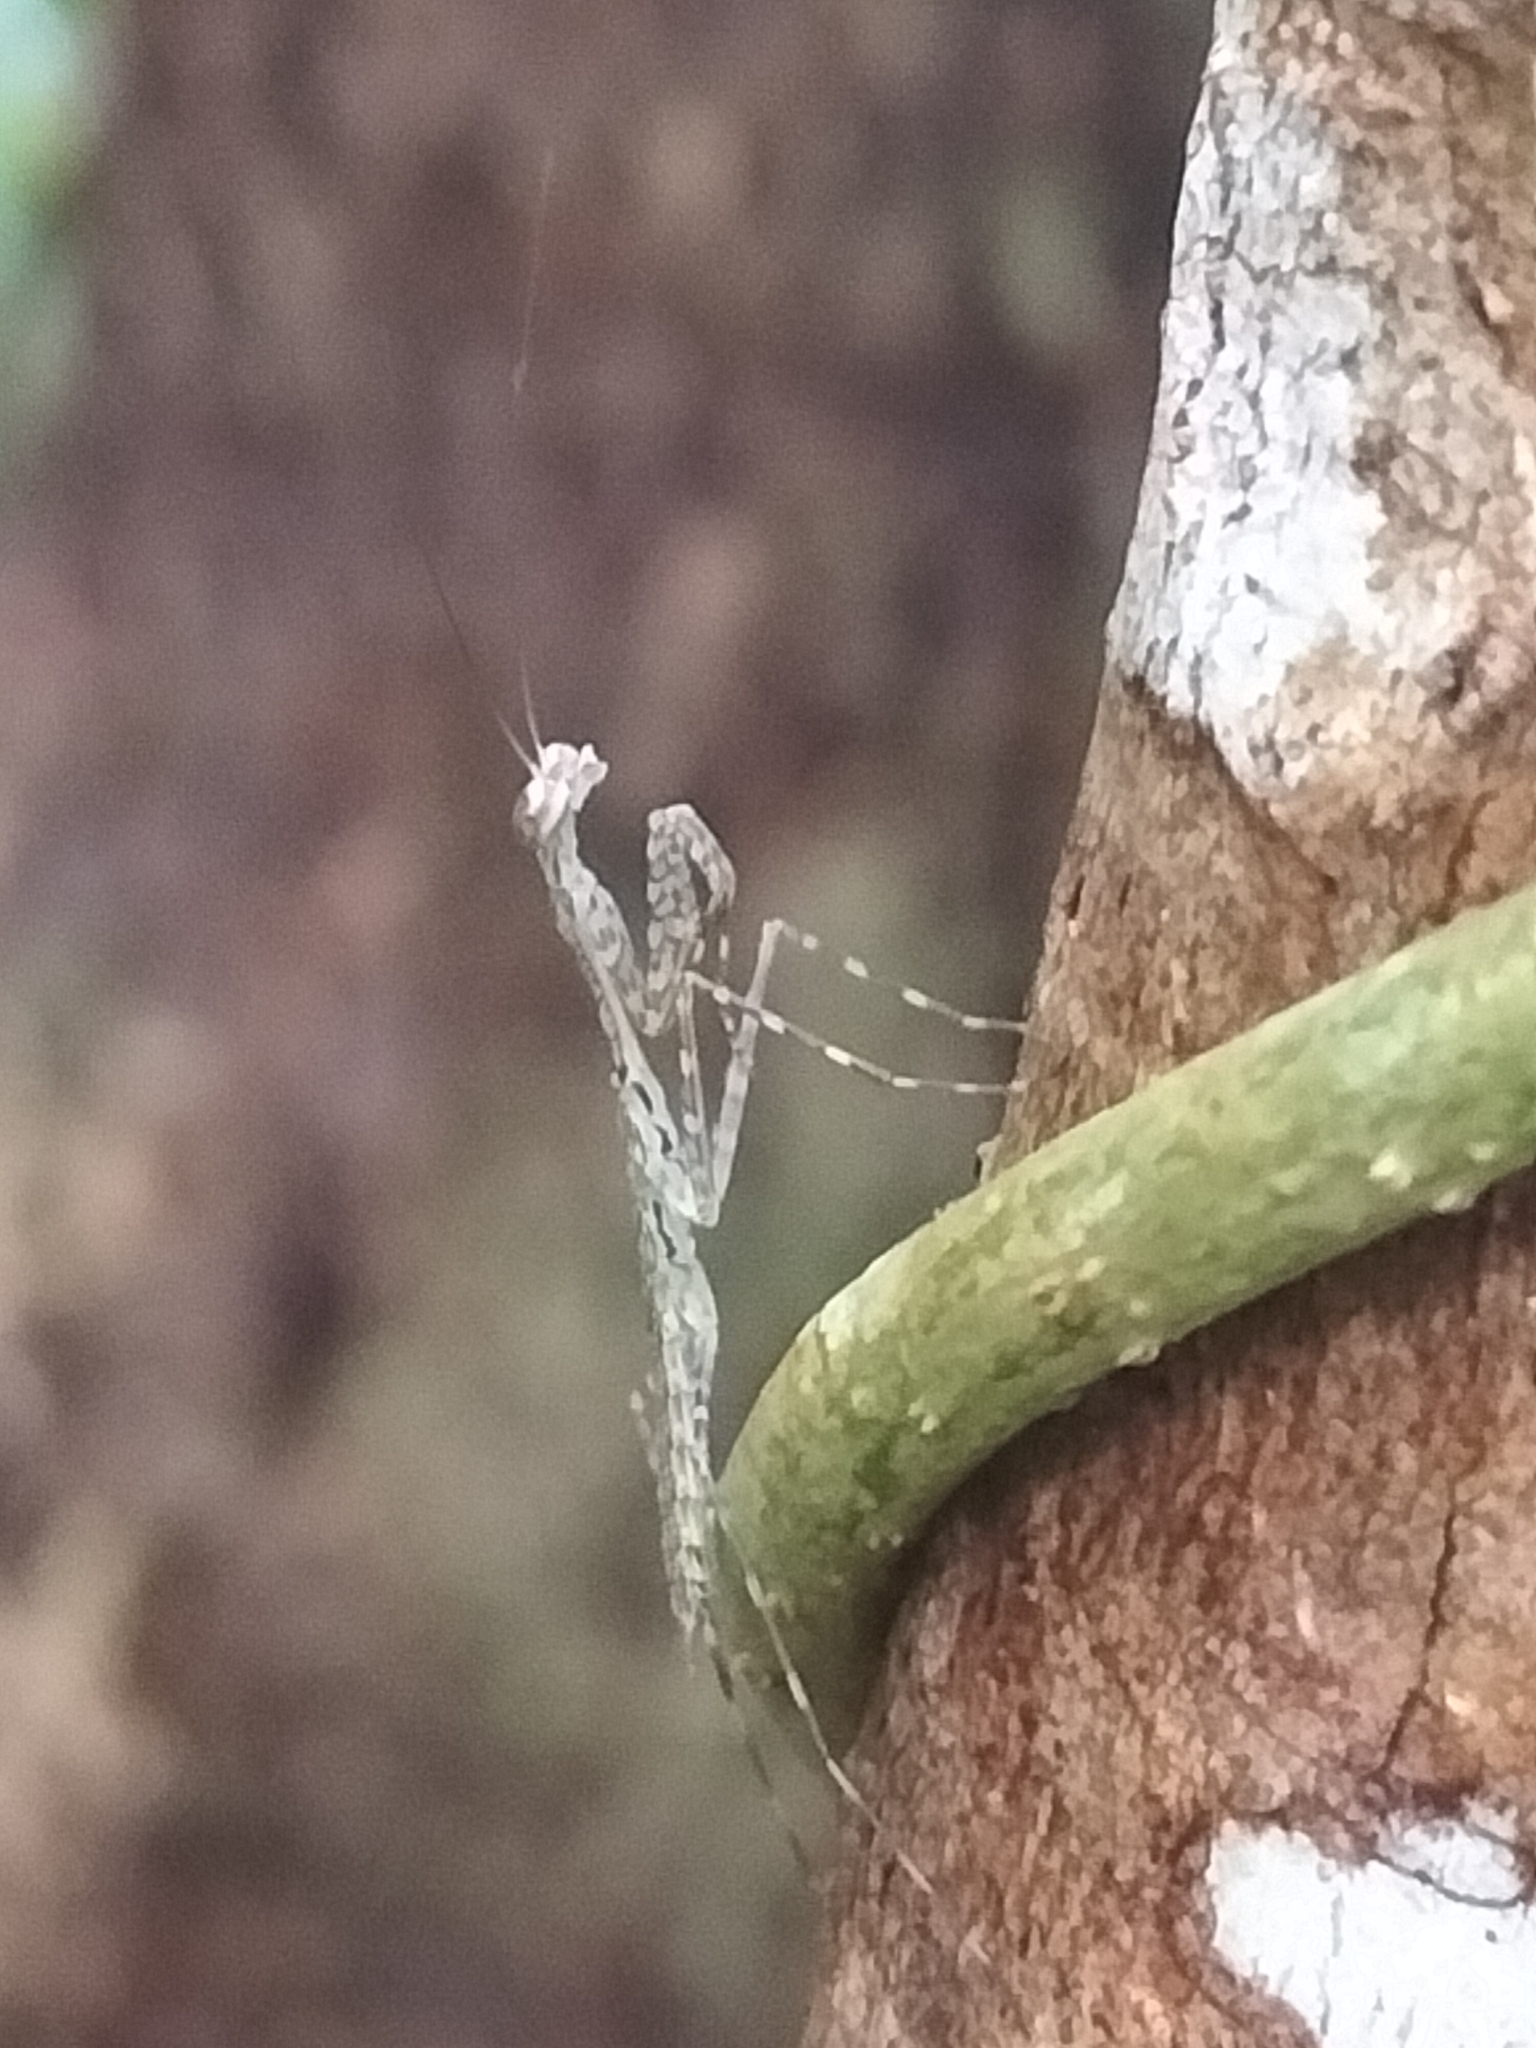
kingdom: Animalia
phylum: Arthropoda
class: Insecta
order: Mantodea
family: Nanomantidae
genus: Ciulfina
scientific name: Ciulfina rentzi
